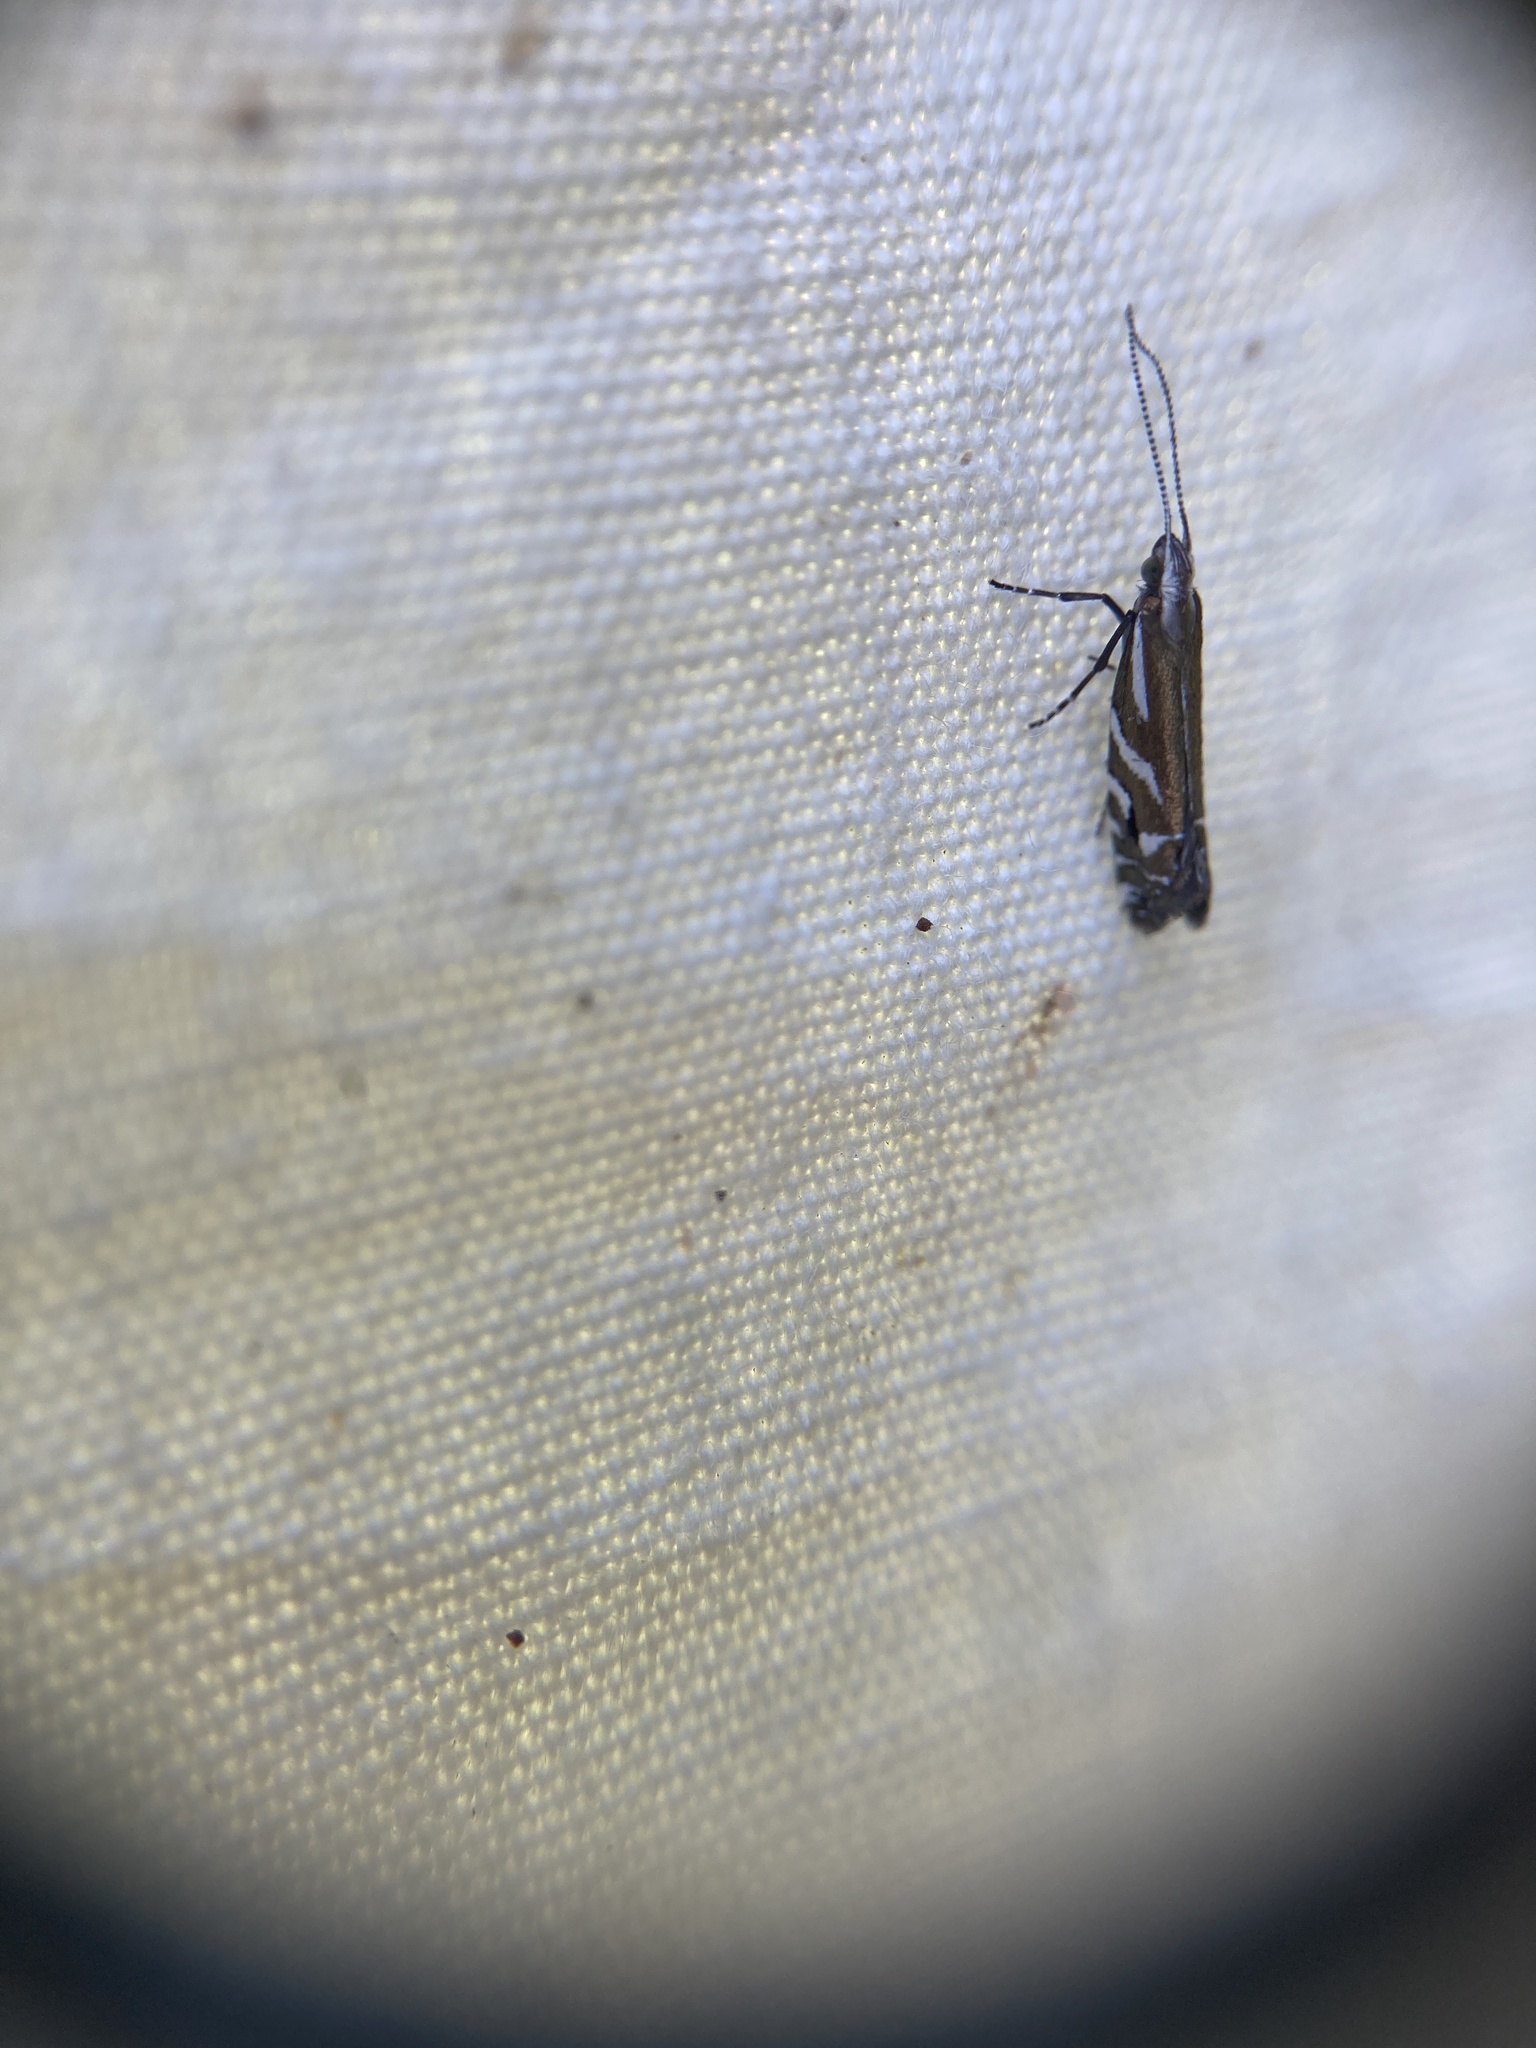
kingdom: Animalia
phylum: Arthropoda
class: Insecta
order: Lepidoptera
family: Glyphipterigidae
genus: Chrysorthenches
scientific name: Chrysorthenches glypharcha
